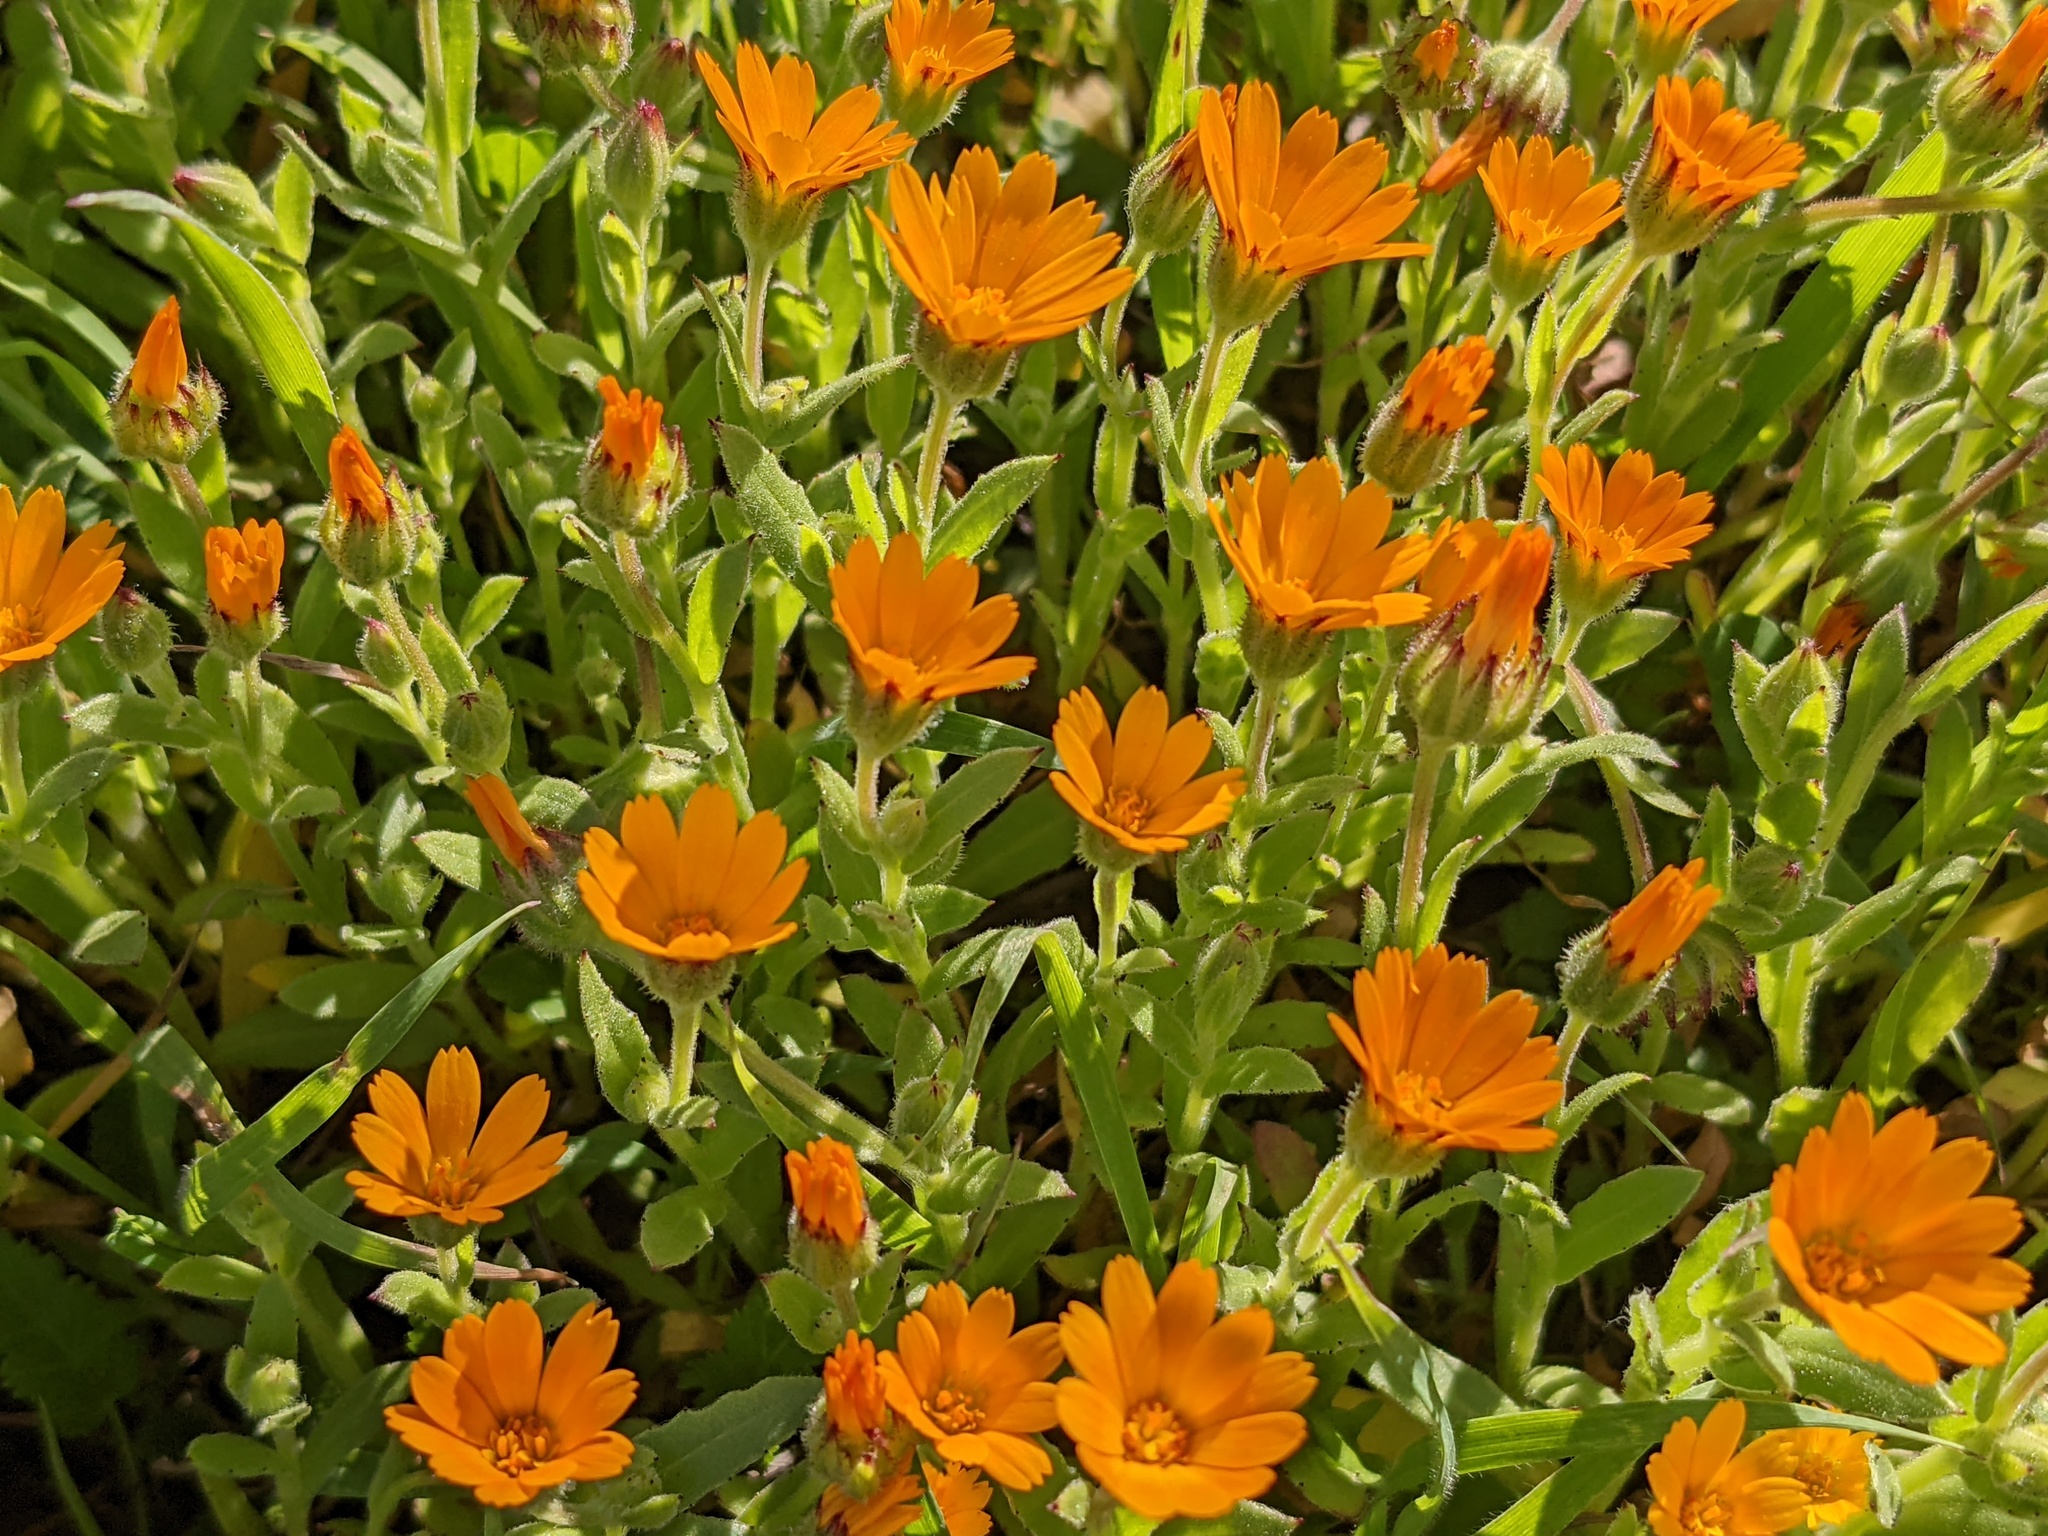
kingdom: Plantae
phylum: Tracheophyta
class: Magnoliopsida
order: Asterales
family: Asteraceae
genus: Calendula
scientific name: Calendula arvensis
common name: Field marigold
